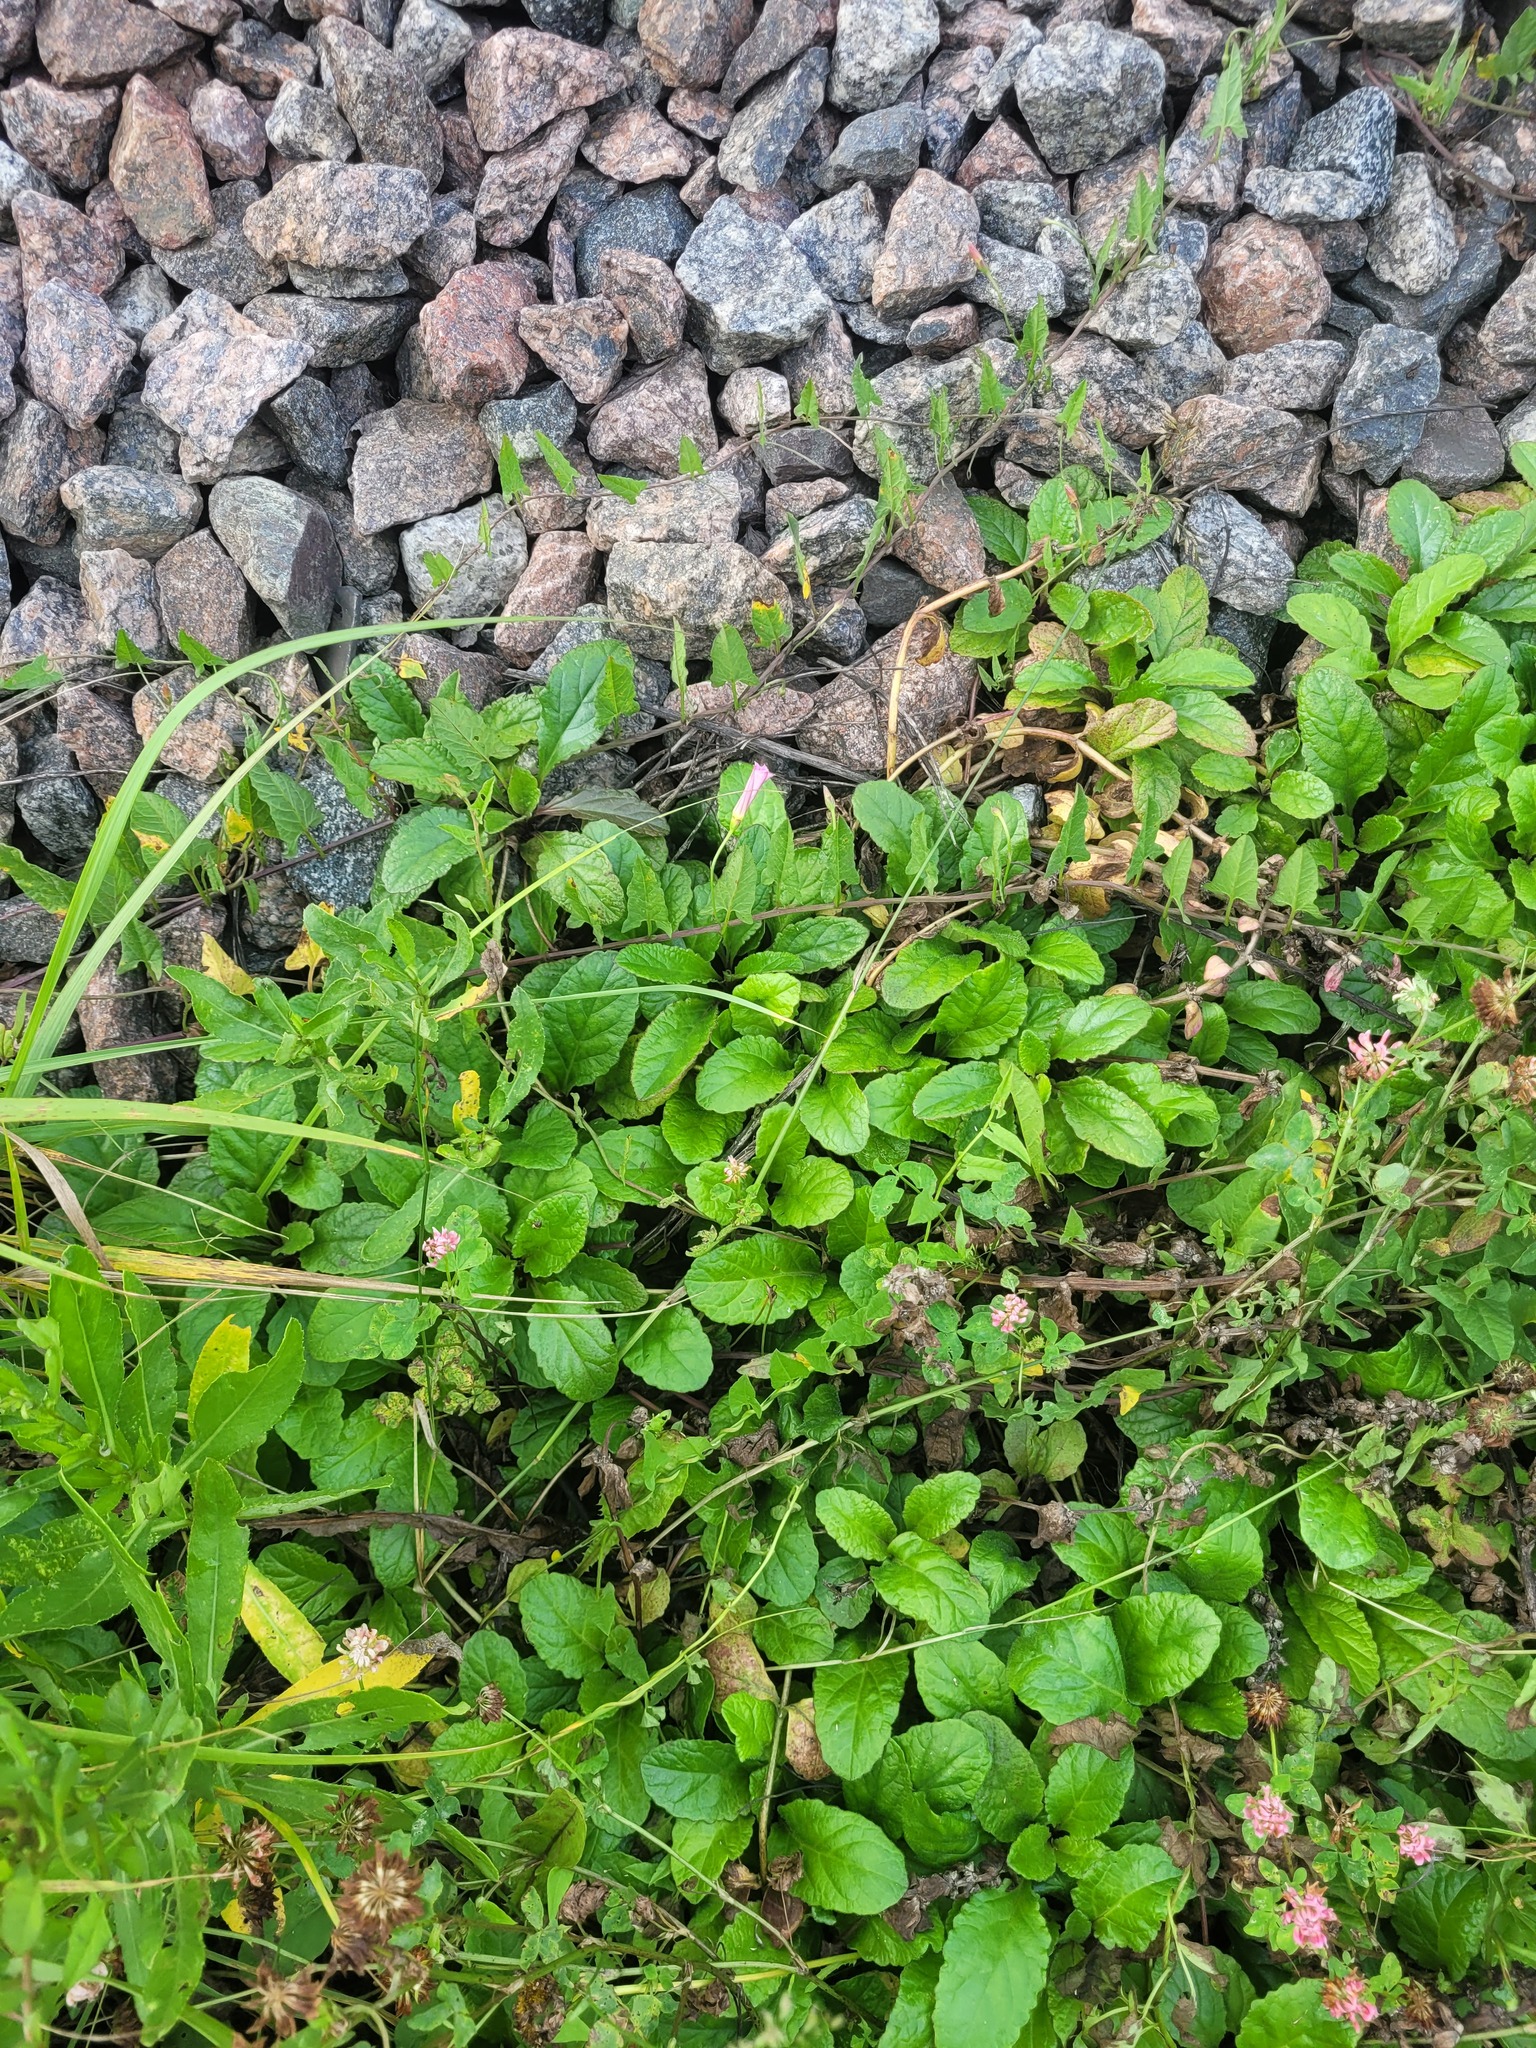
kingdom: Plantae
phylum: Tracheophyta
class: Magnoliopsida
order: Lamiales
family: Lamiaceae
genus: Ajuga
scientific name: Ajuga reptans
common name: Bugle
